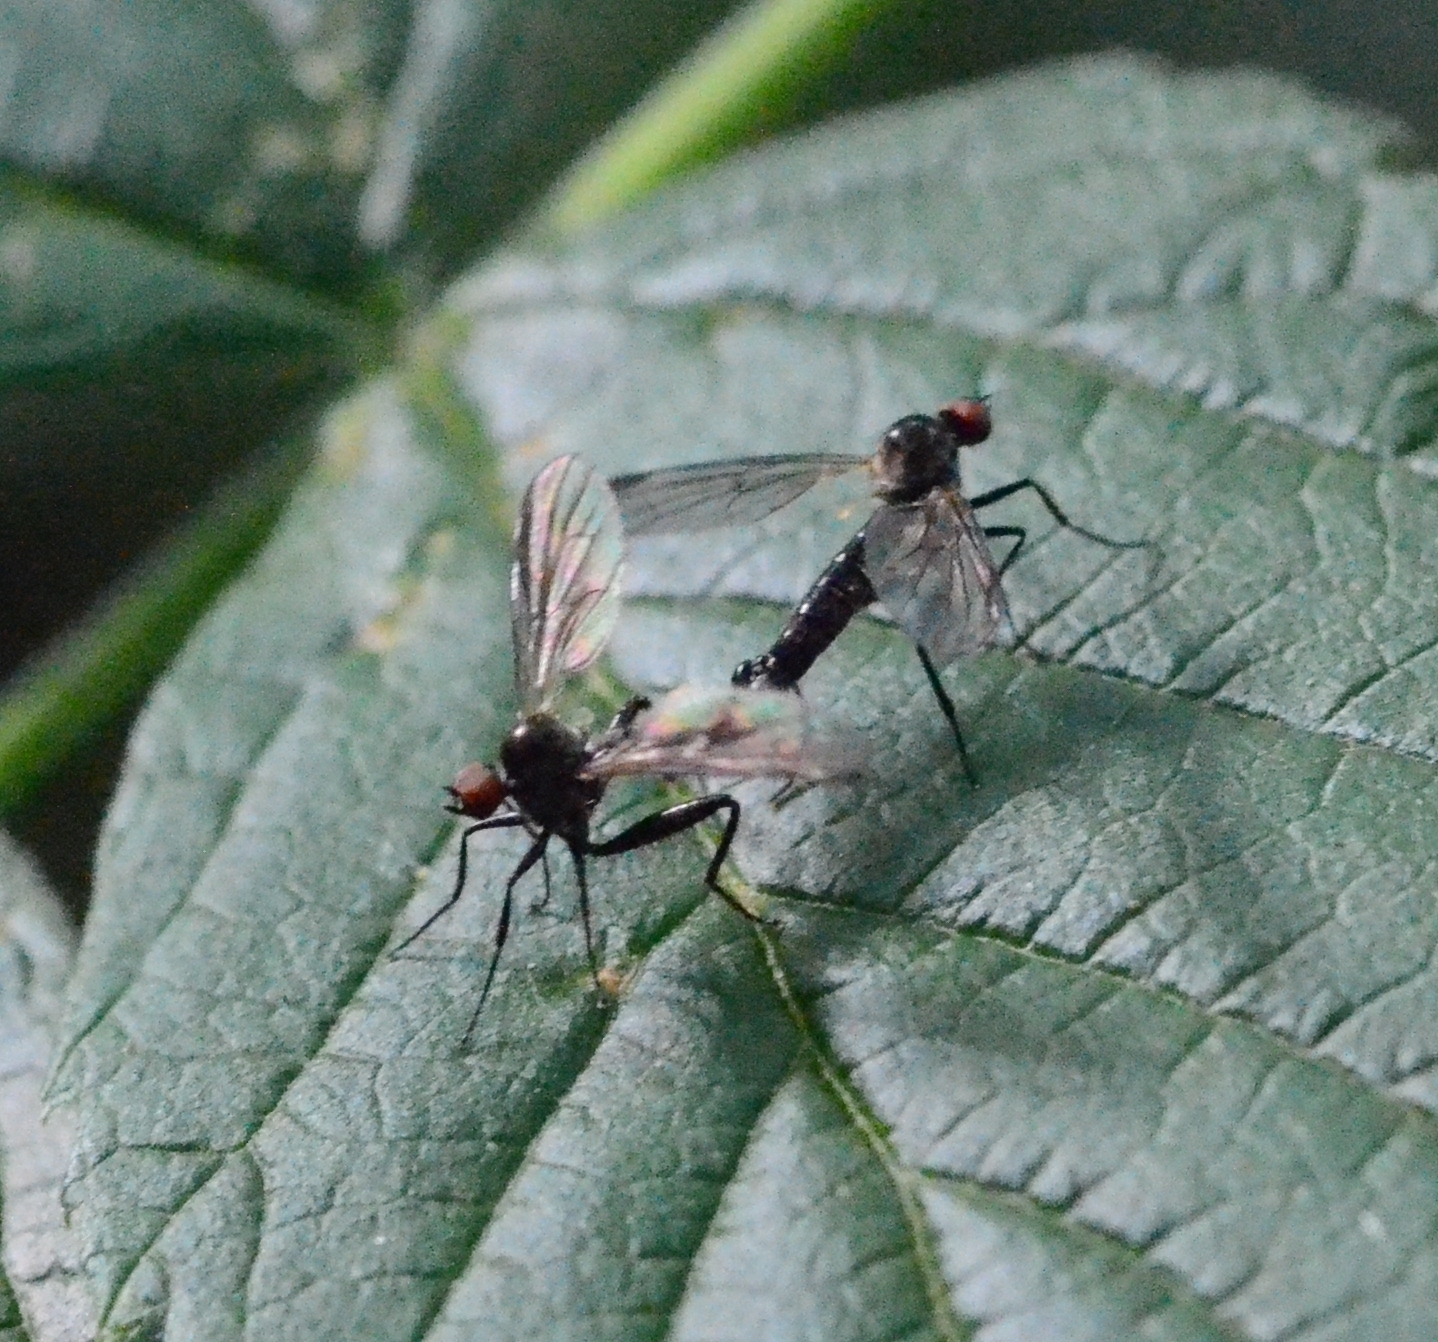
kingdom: Animalia
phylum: Arthropoda
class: Insecta
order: Diptera
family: Hybotidae
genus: Hybos
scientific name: Hybos culiciformis
